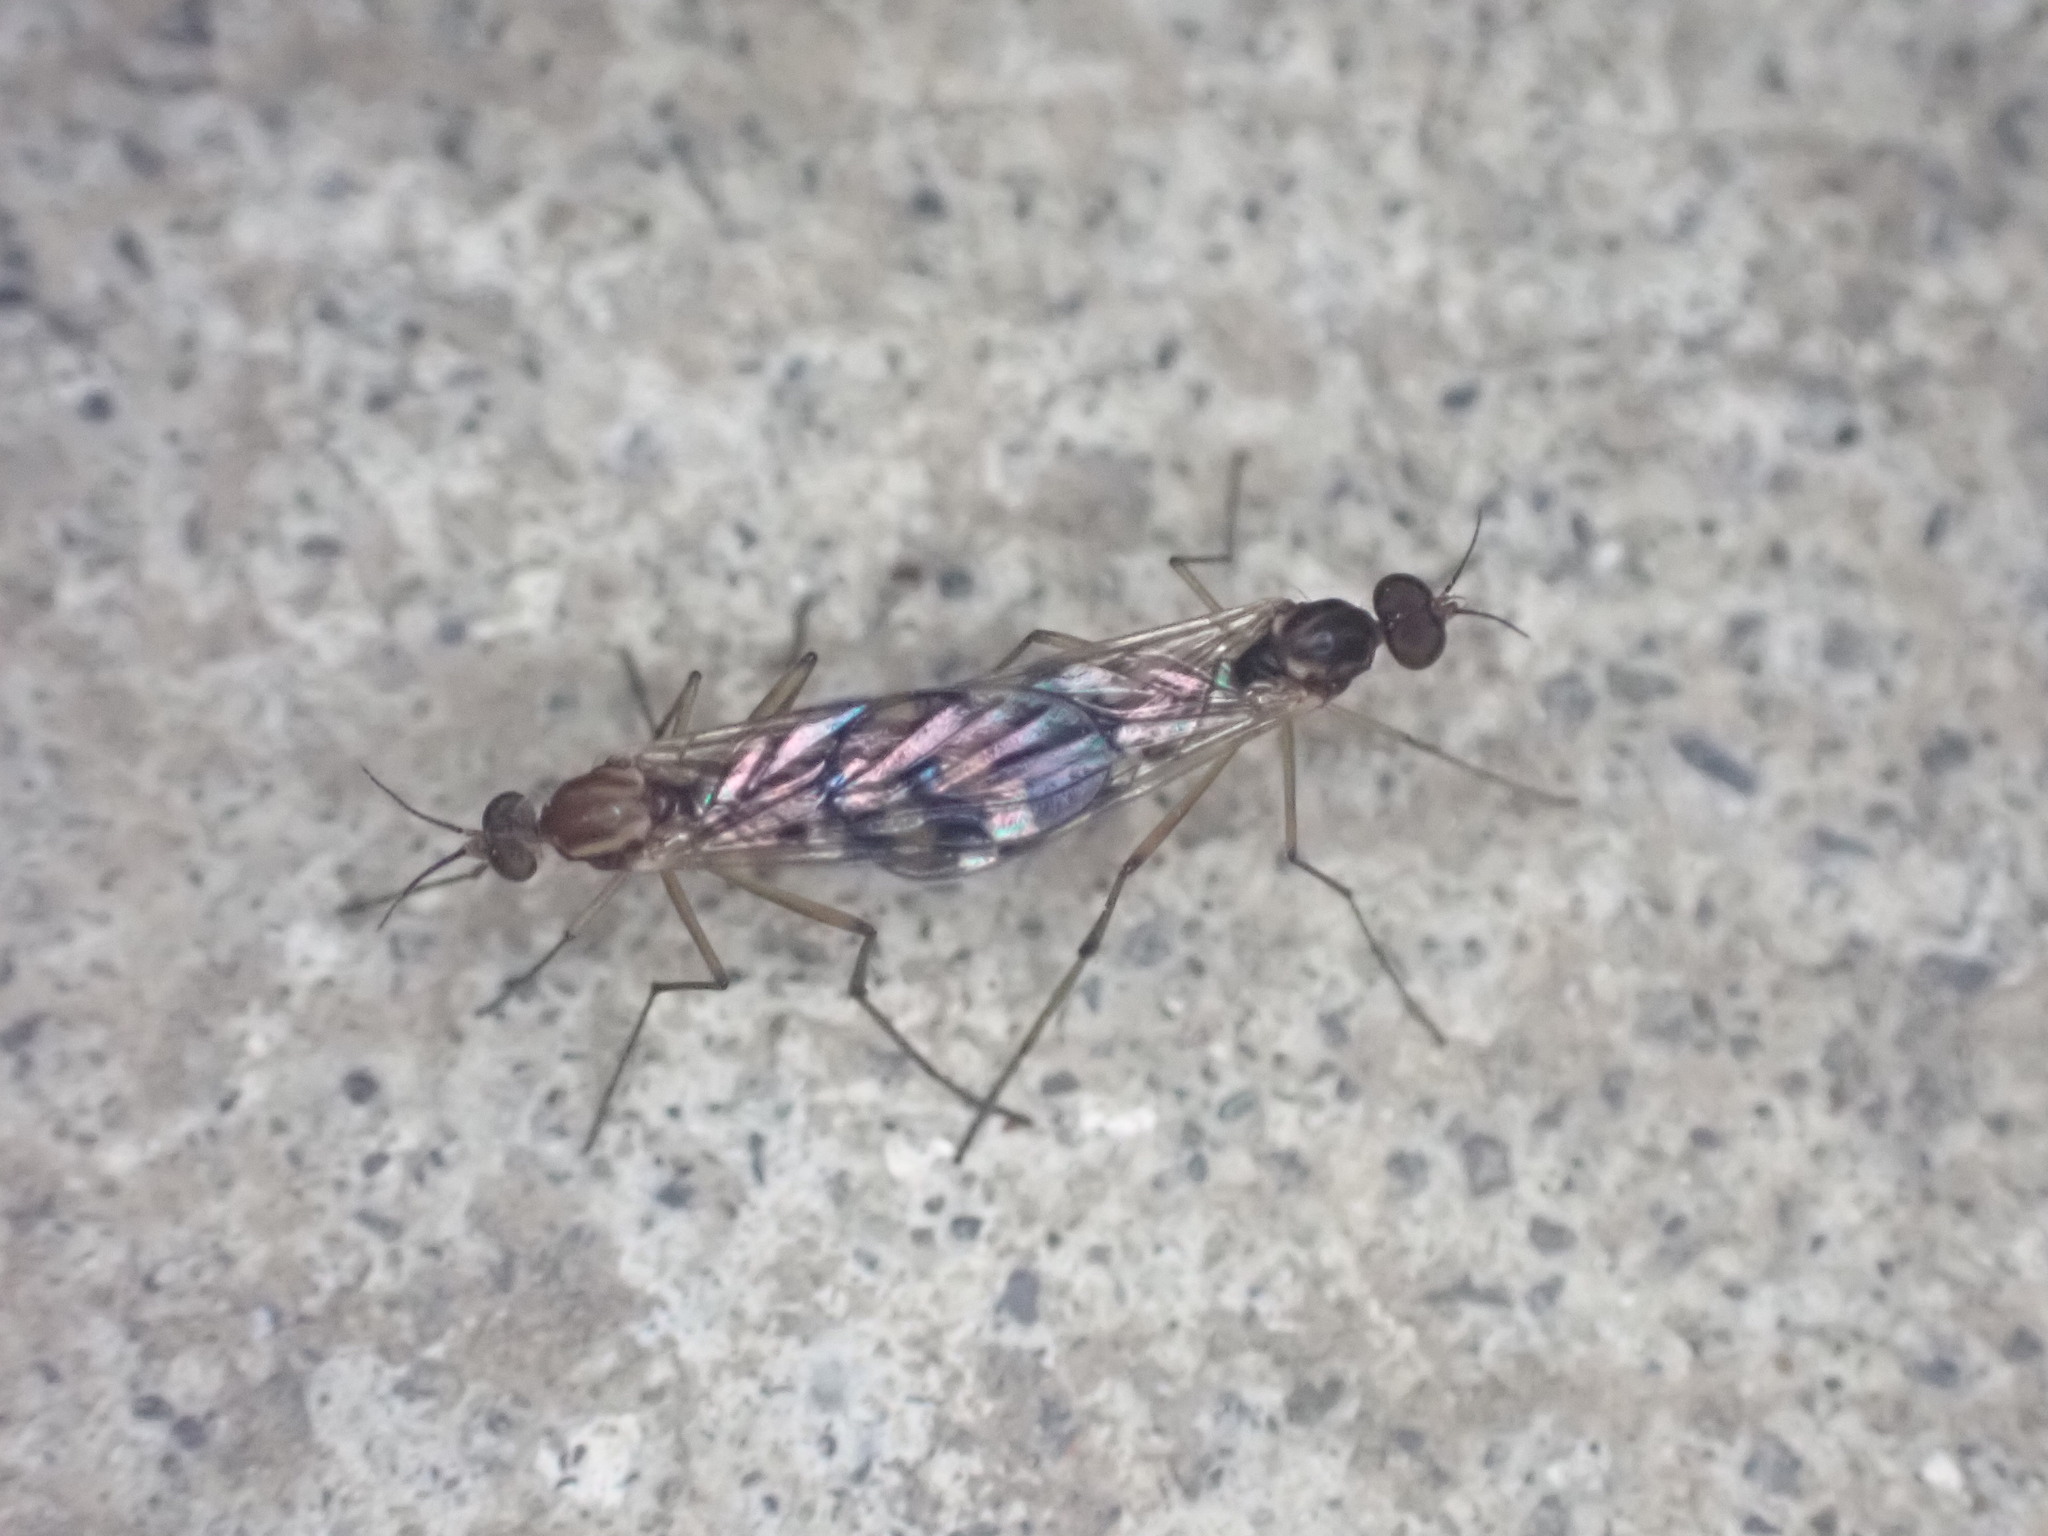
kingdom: Animalia
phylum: Arthropoda
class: Insecta
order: Diptera
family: Anisopodidae
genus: Sylvicola
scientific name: Sylvicola notatus
